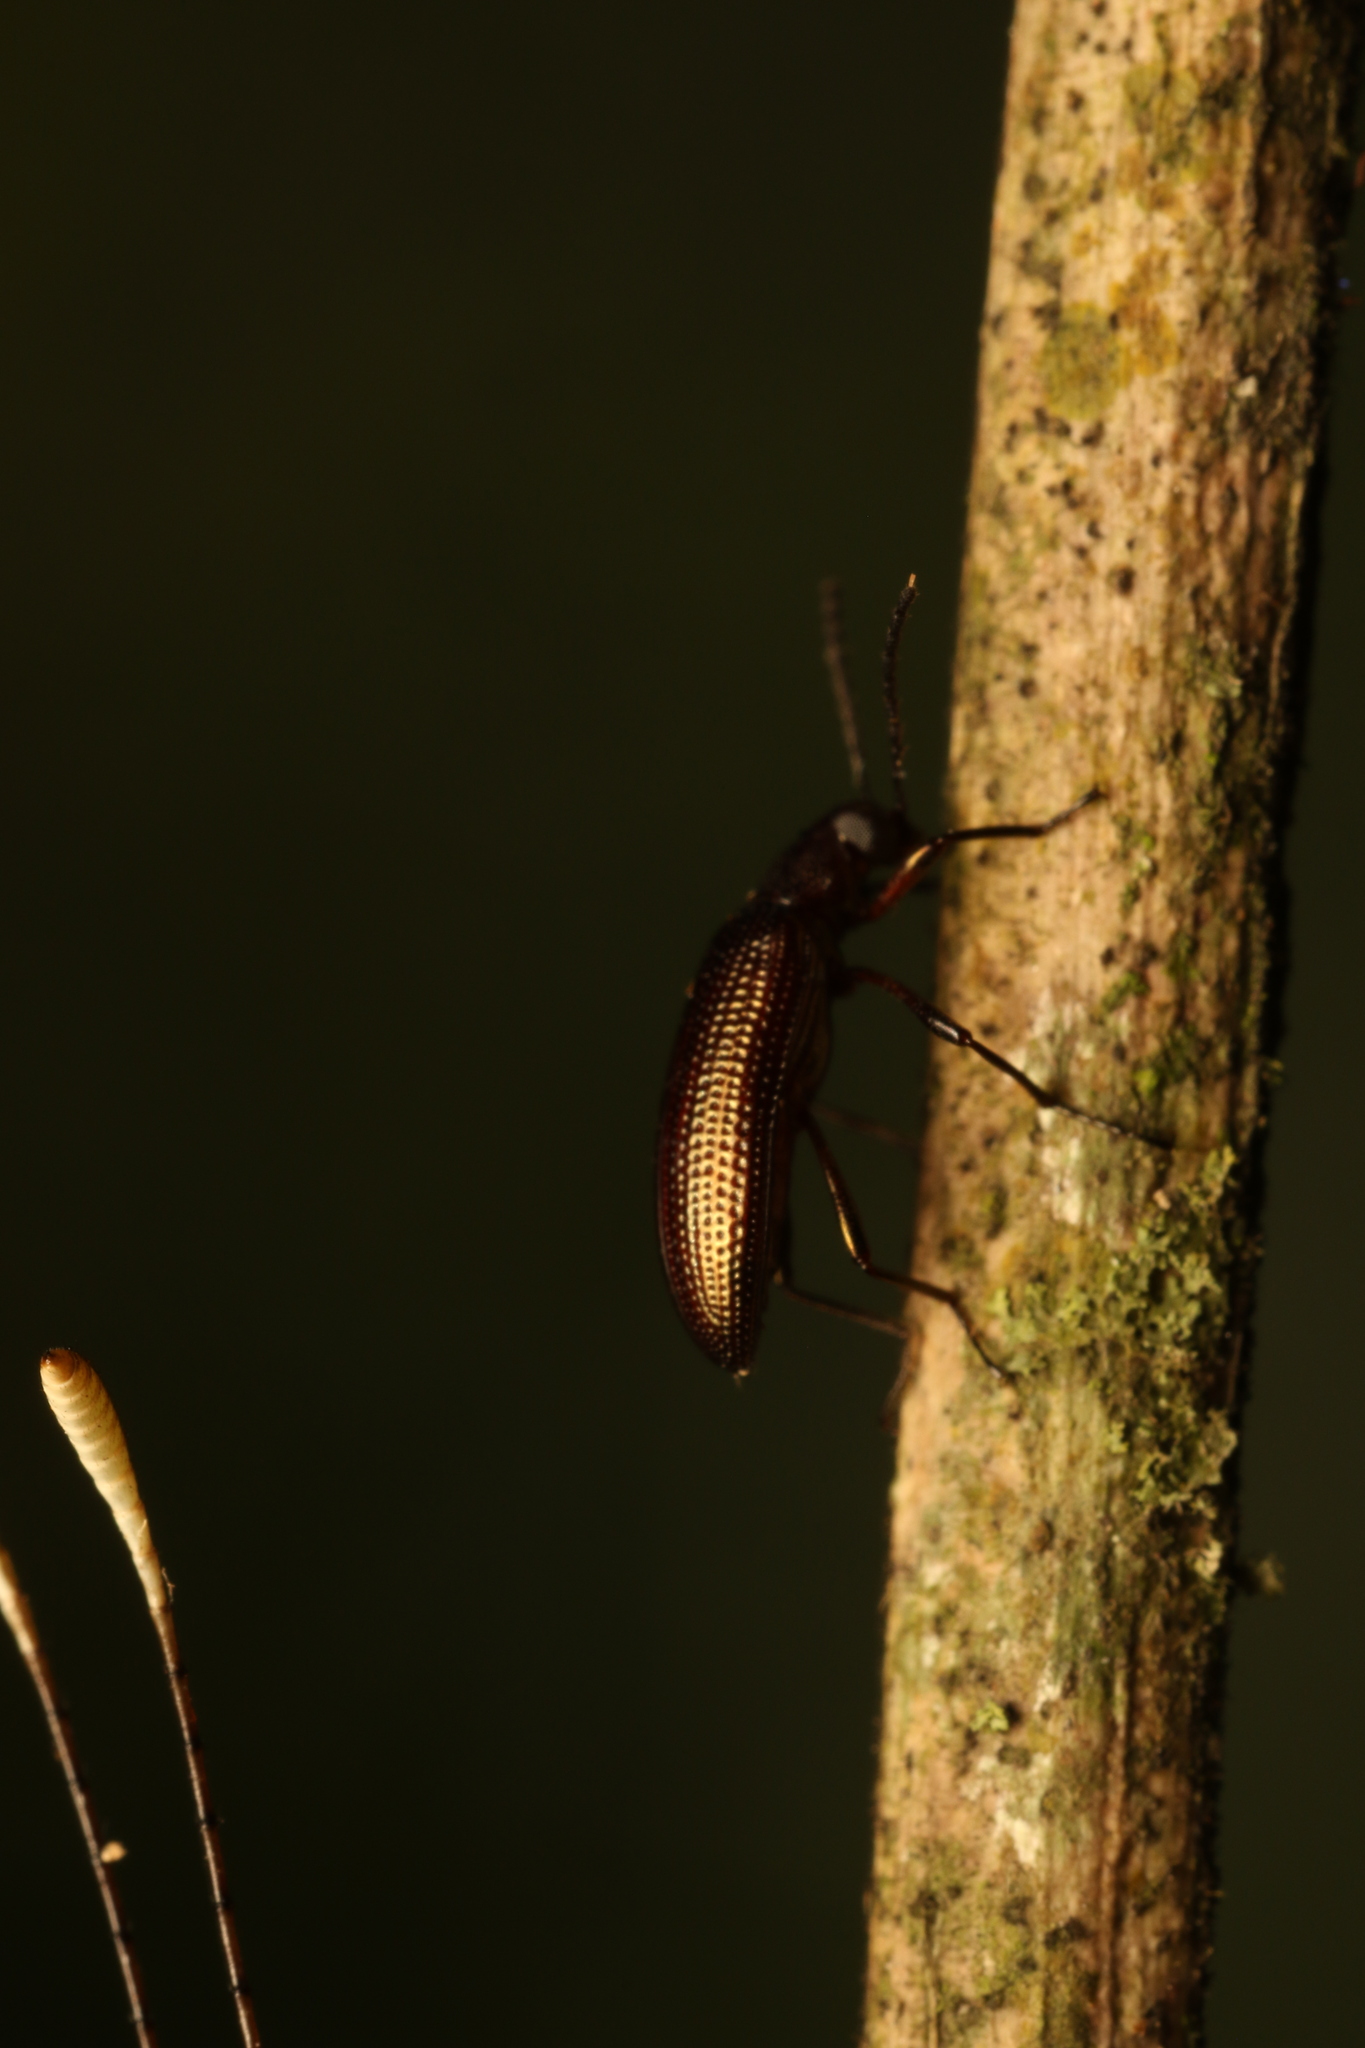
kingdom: Animalia
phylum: Arthropoda
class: Insecta
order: Neuroptera
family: Ascalaphidae
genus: Ameropterus
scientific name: Ameropterus versicolor
